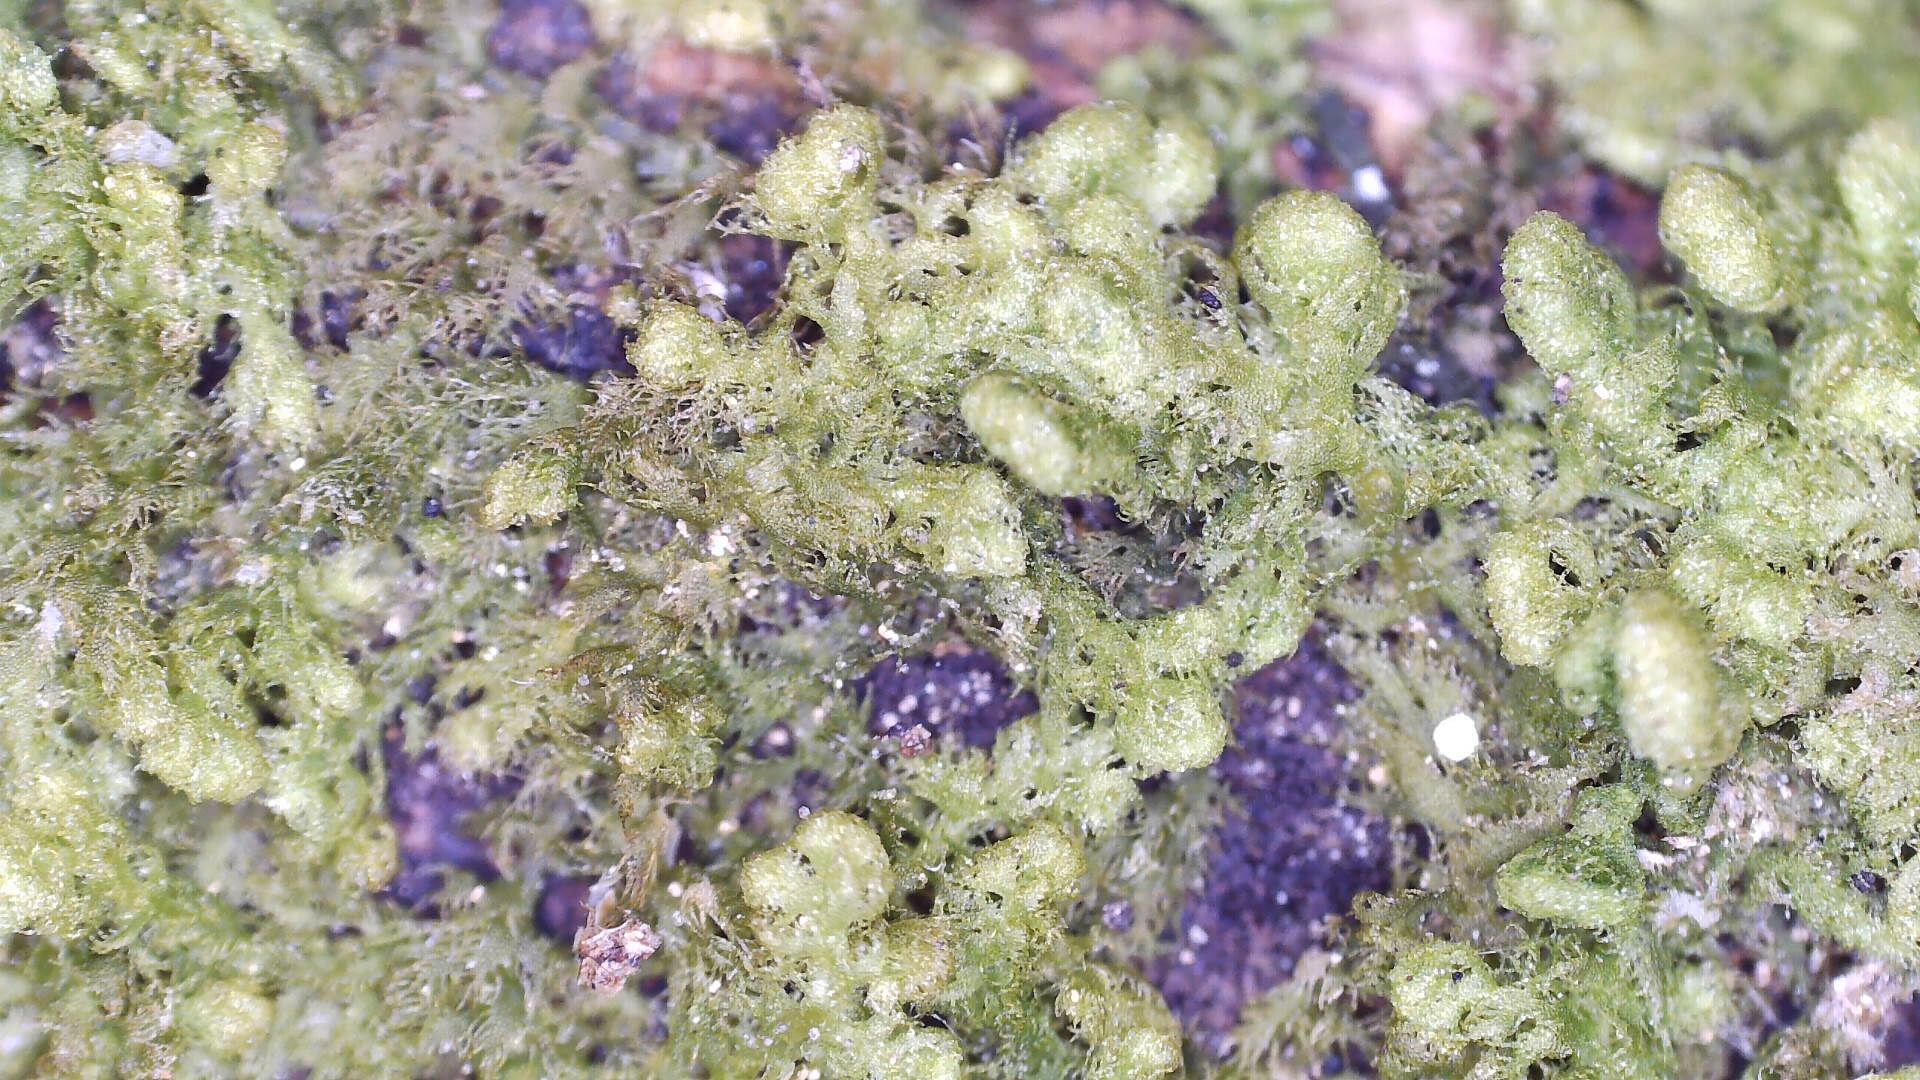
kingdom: Plantae
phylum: Marchantiophyta
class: Jungermanniopsida
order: Ptilidiales
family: Ptilidiaceae
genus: Ptilidium
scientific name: Ptilidium pulcherrimum
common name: Tree fringewort
